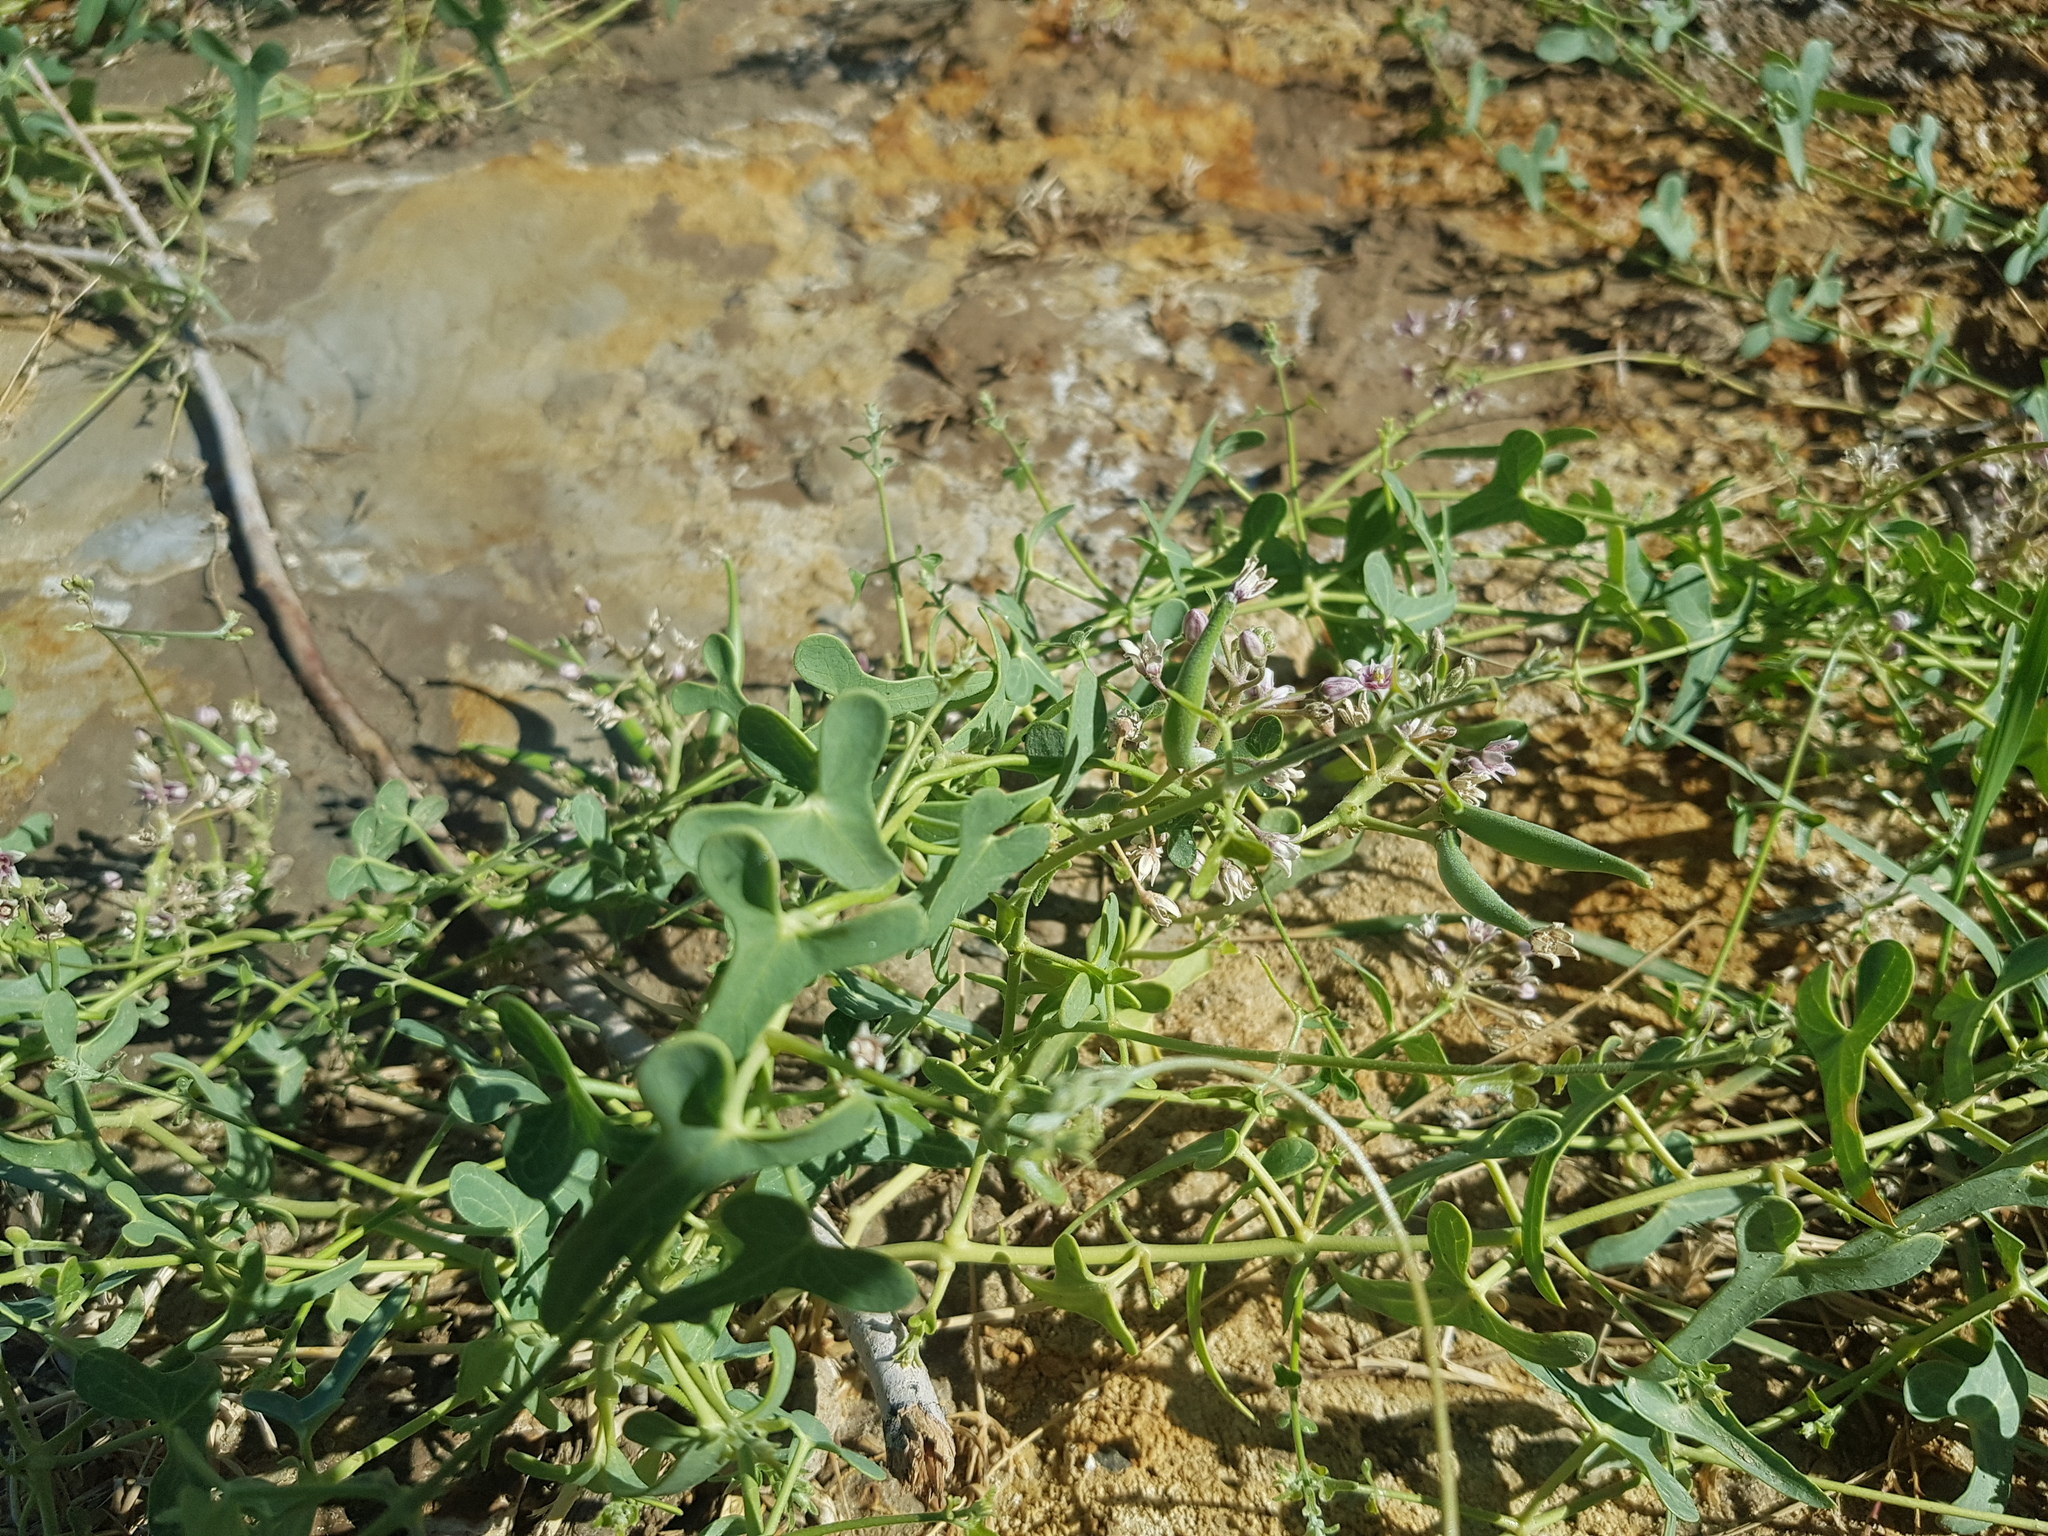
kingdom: Plantae
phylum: Tracheophyta
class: Magnoliopsida
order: Gentianales
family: Apocynaceae
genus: Cynanchum
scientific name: Cynanchum acutum
